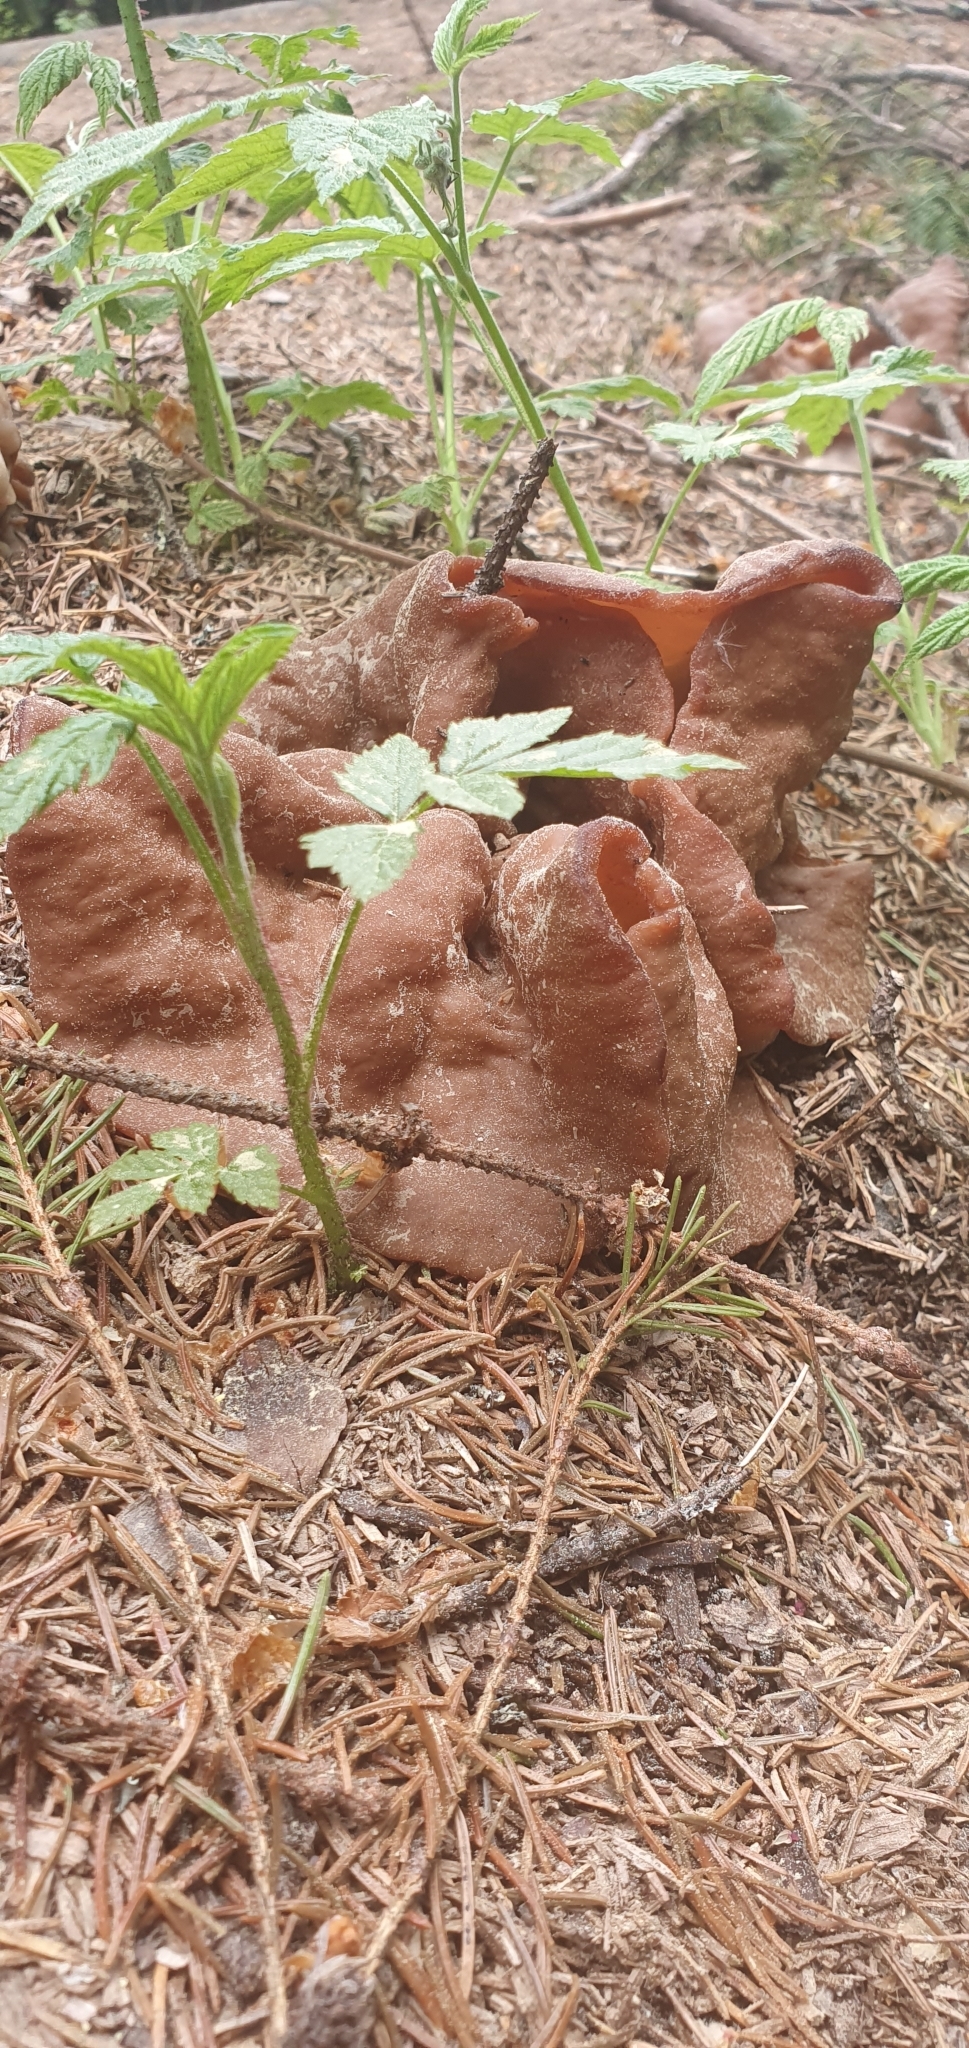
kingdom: Fungi
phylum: Ascomycota
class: Pezizomycetes
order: Pezizales
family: Discinaceae
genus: Discina
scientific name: Discina
